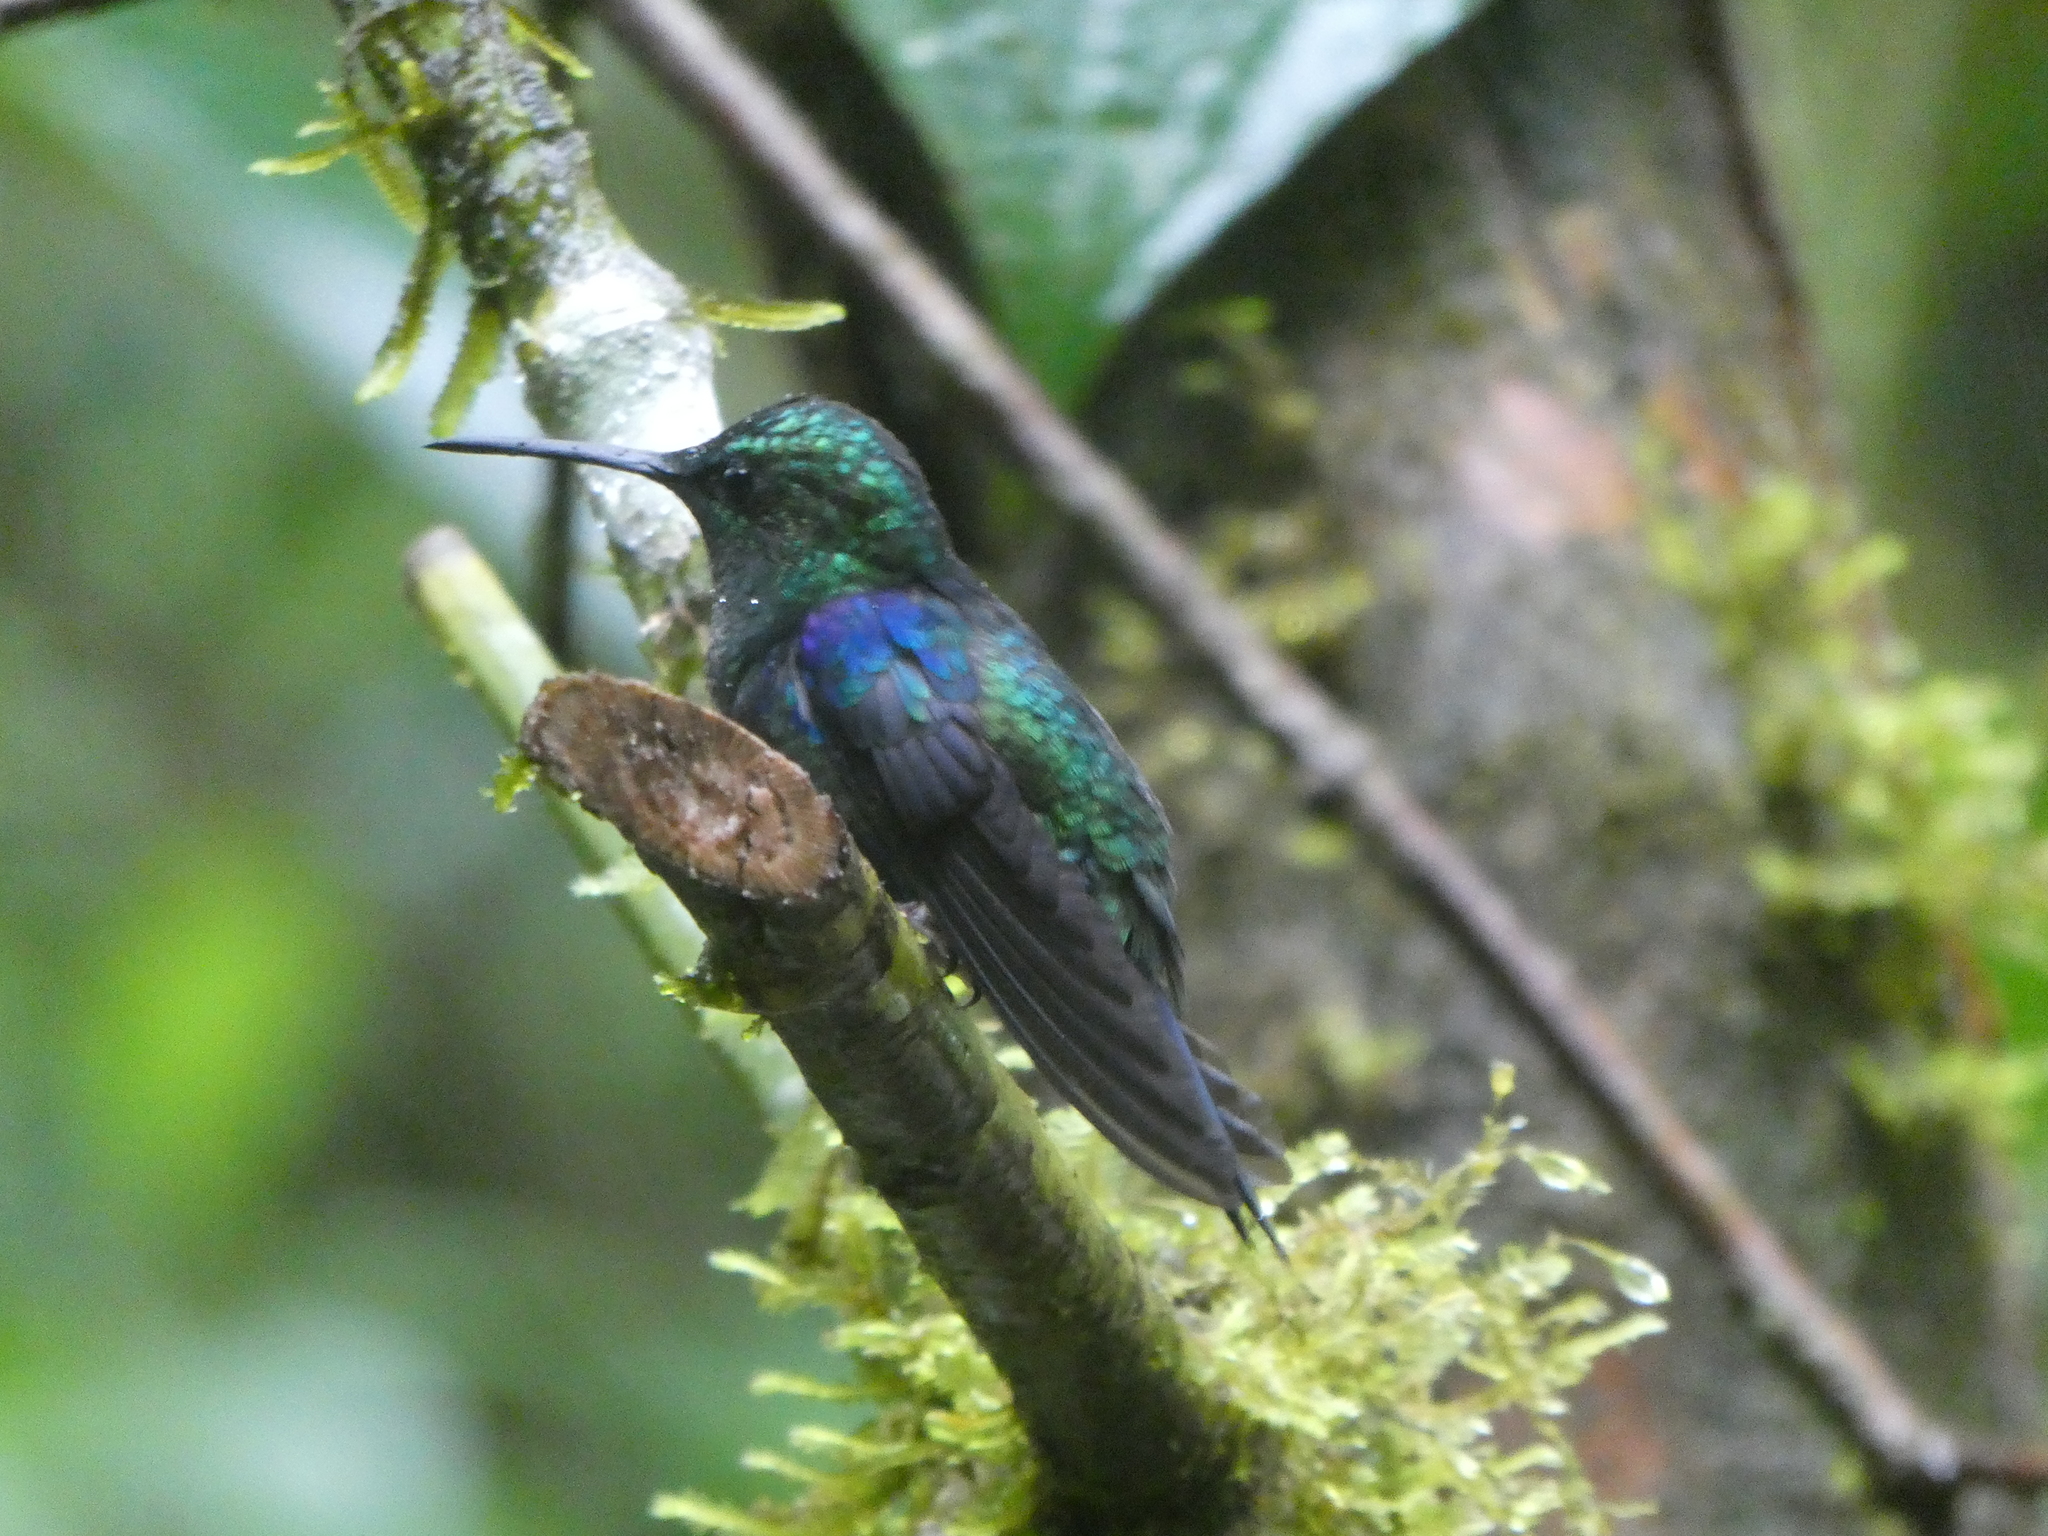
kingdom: Animalia
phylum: Chordata
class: Aves
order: Apodiformes
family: Trochilidae
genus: Thalurania
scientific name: Thalurania colombica
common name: Crowned woodnymph
